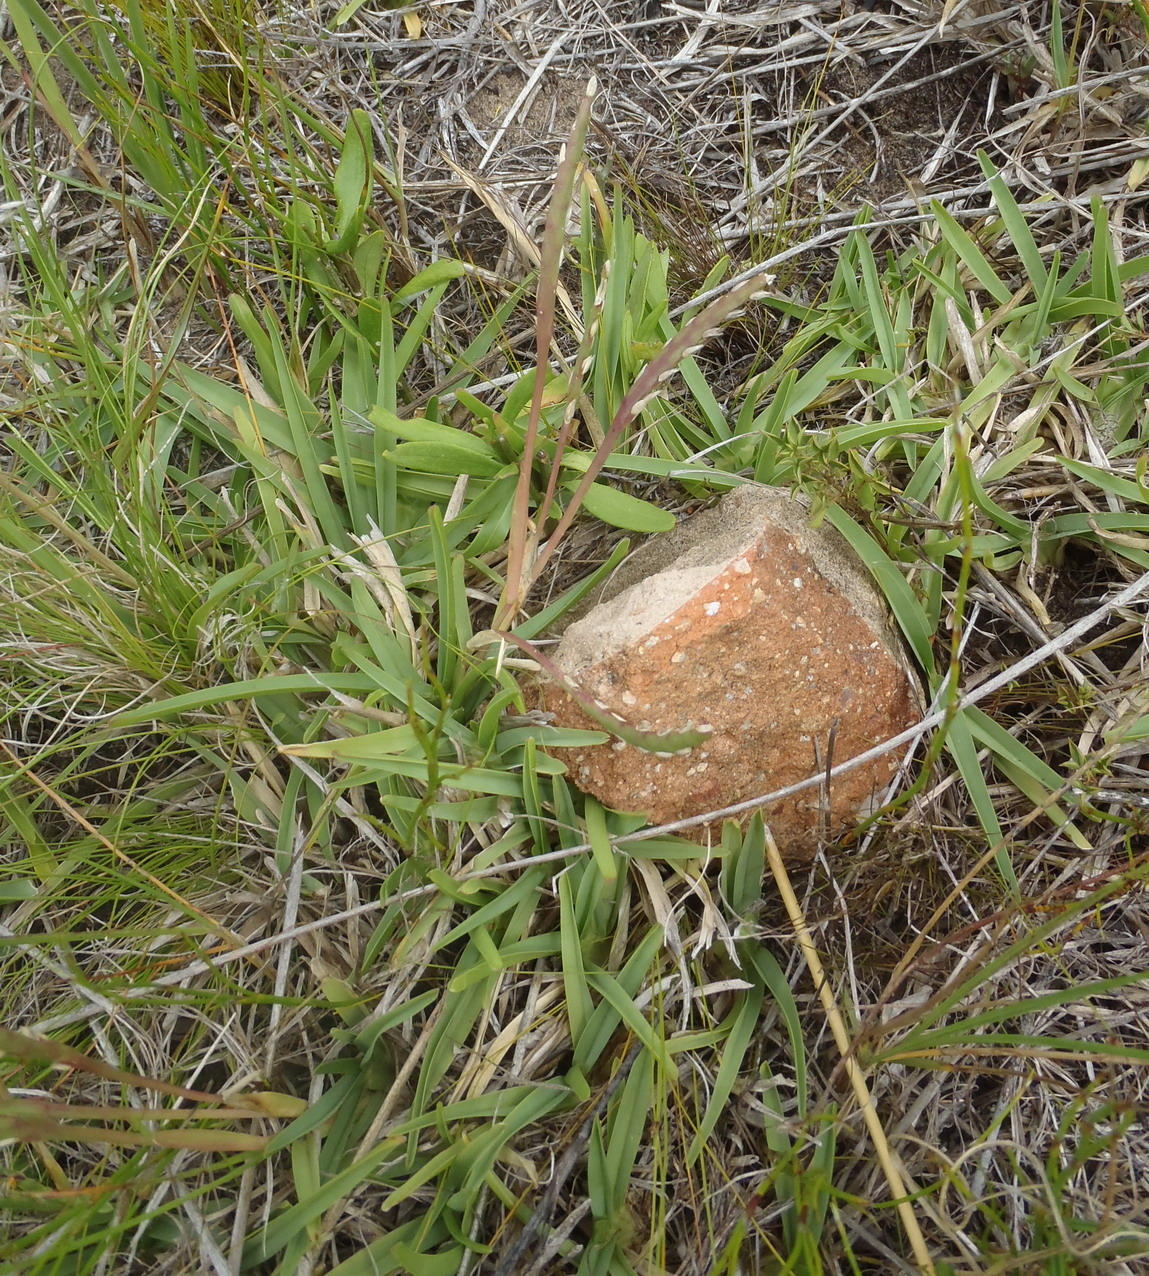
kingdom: Plantae
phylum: Tracheophyta
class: Liliopsida
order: Poales
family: Poaceae
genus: Stenotaphrum
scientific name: Stenotaphrum secundatum
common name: St. augustine grass
